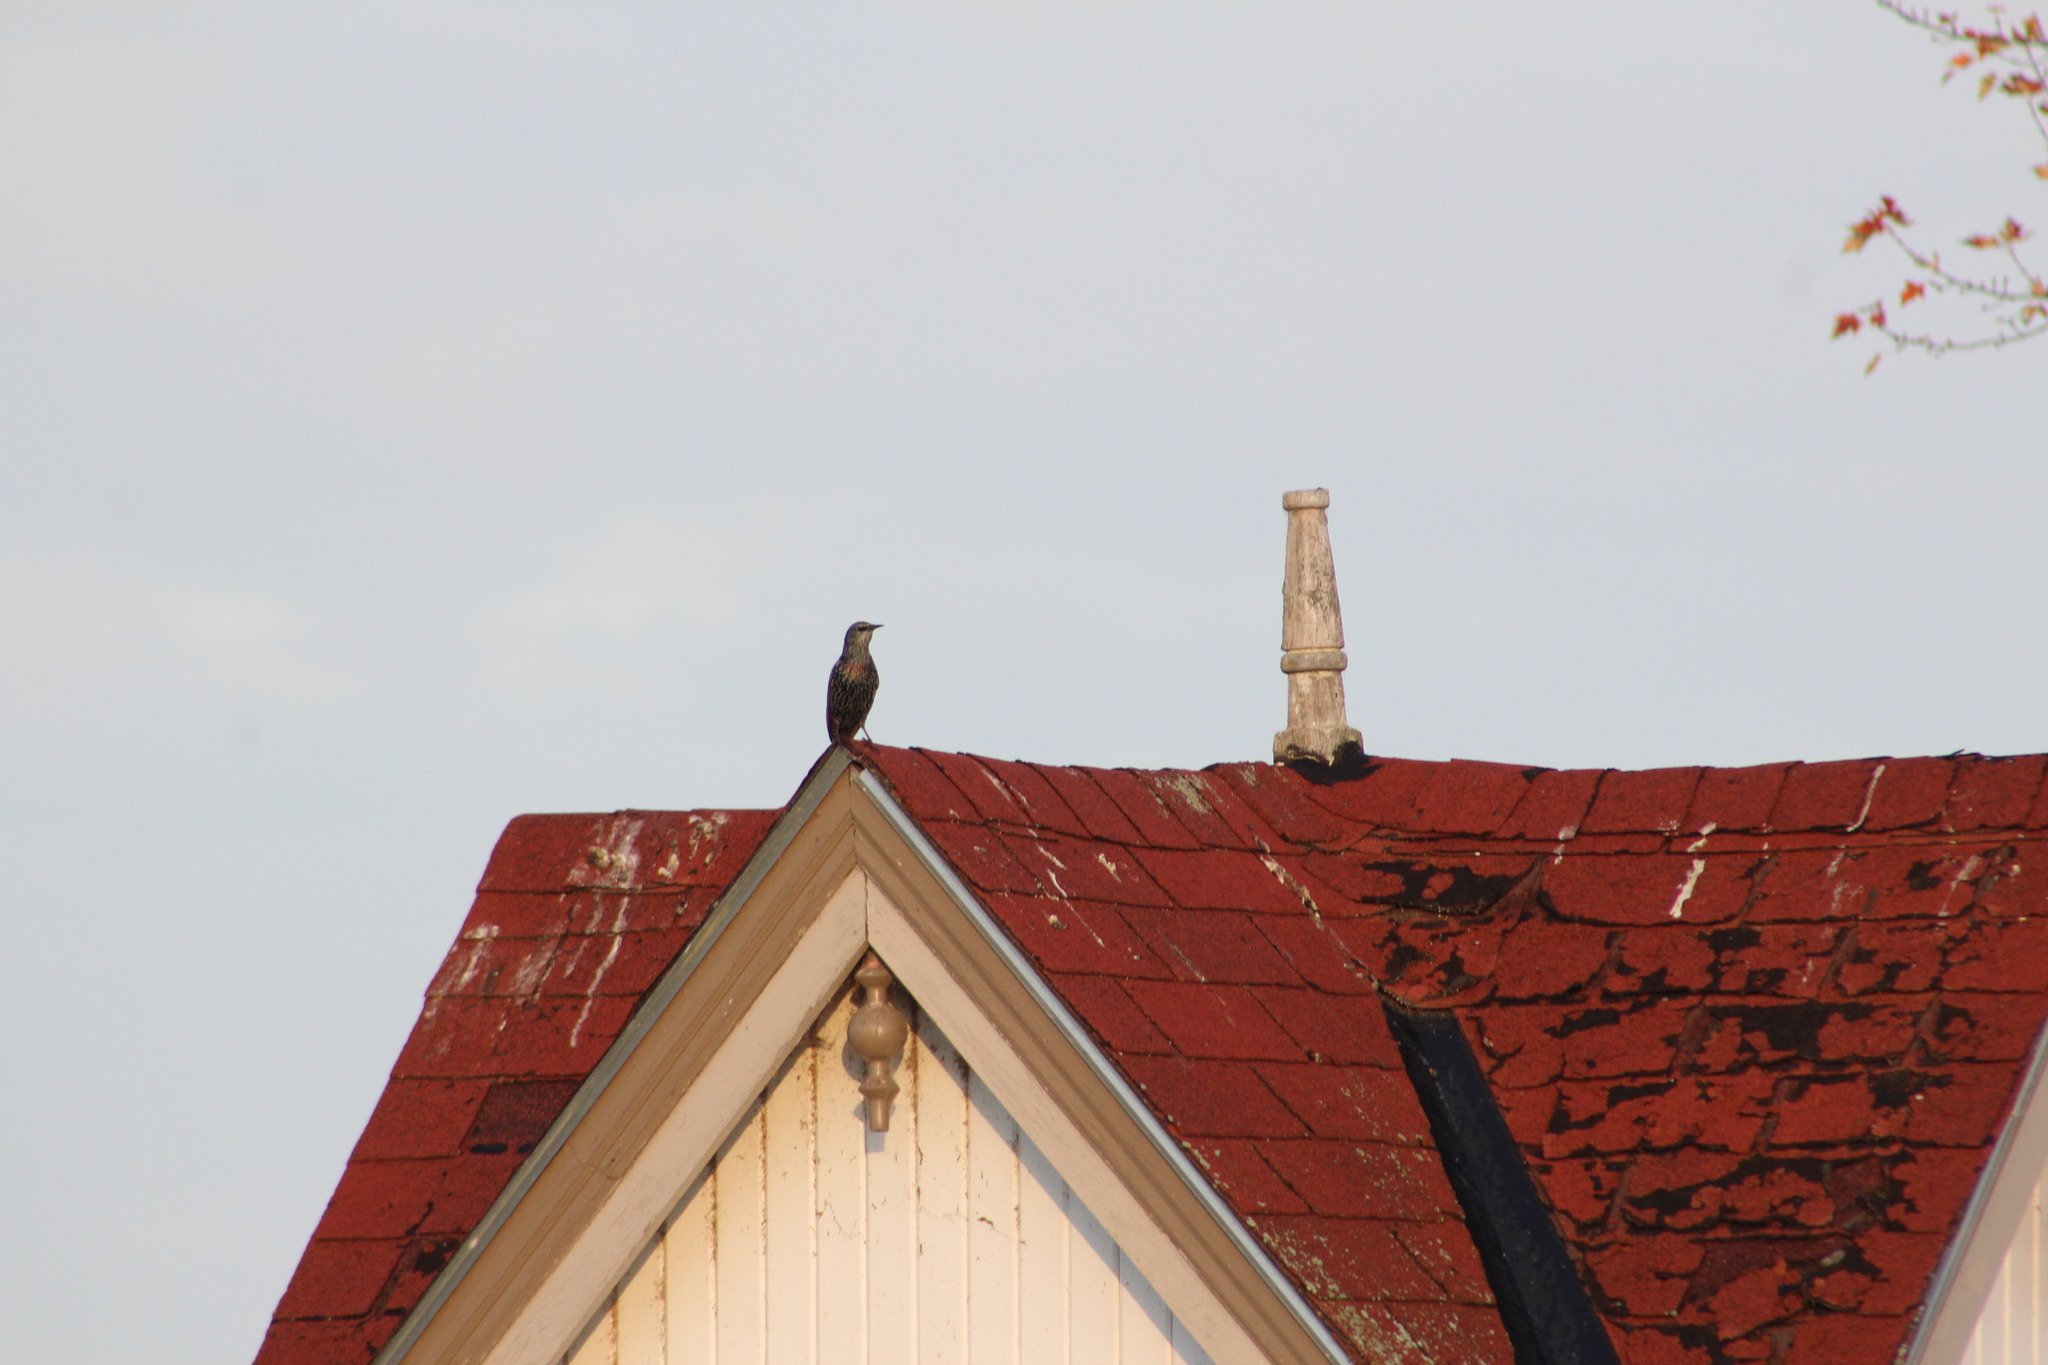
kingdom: Animalia
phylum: Chordata
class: Aves
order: Passeriformes
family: Sturnidae
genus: Sturnus
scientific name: Sturnus vulgaris
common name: Common starling
